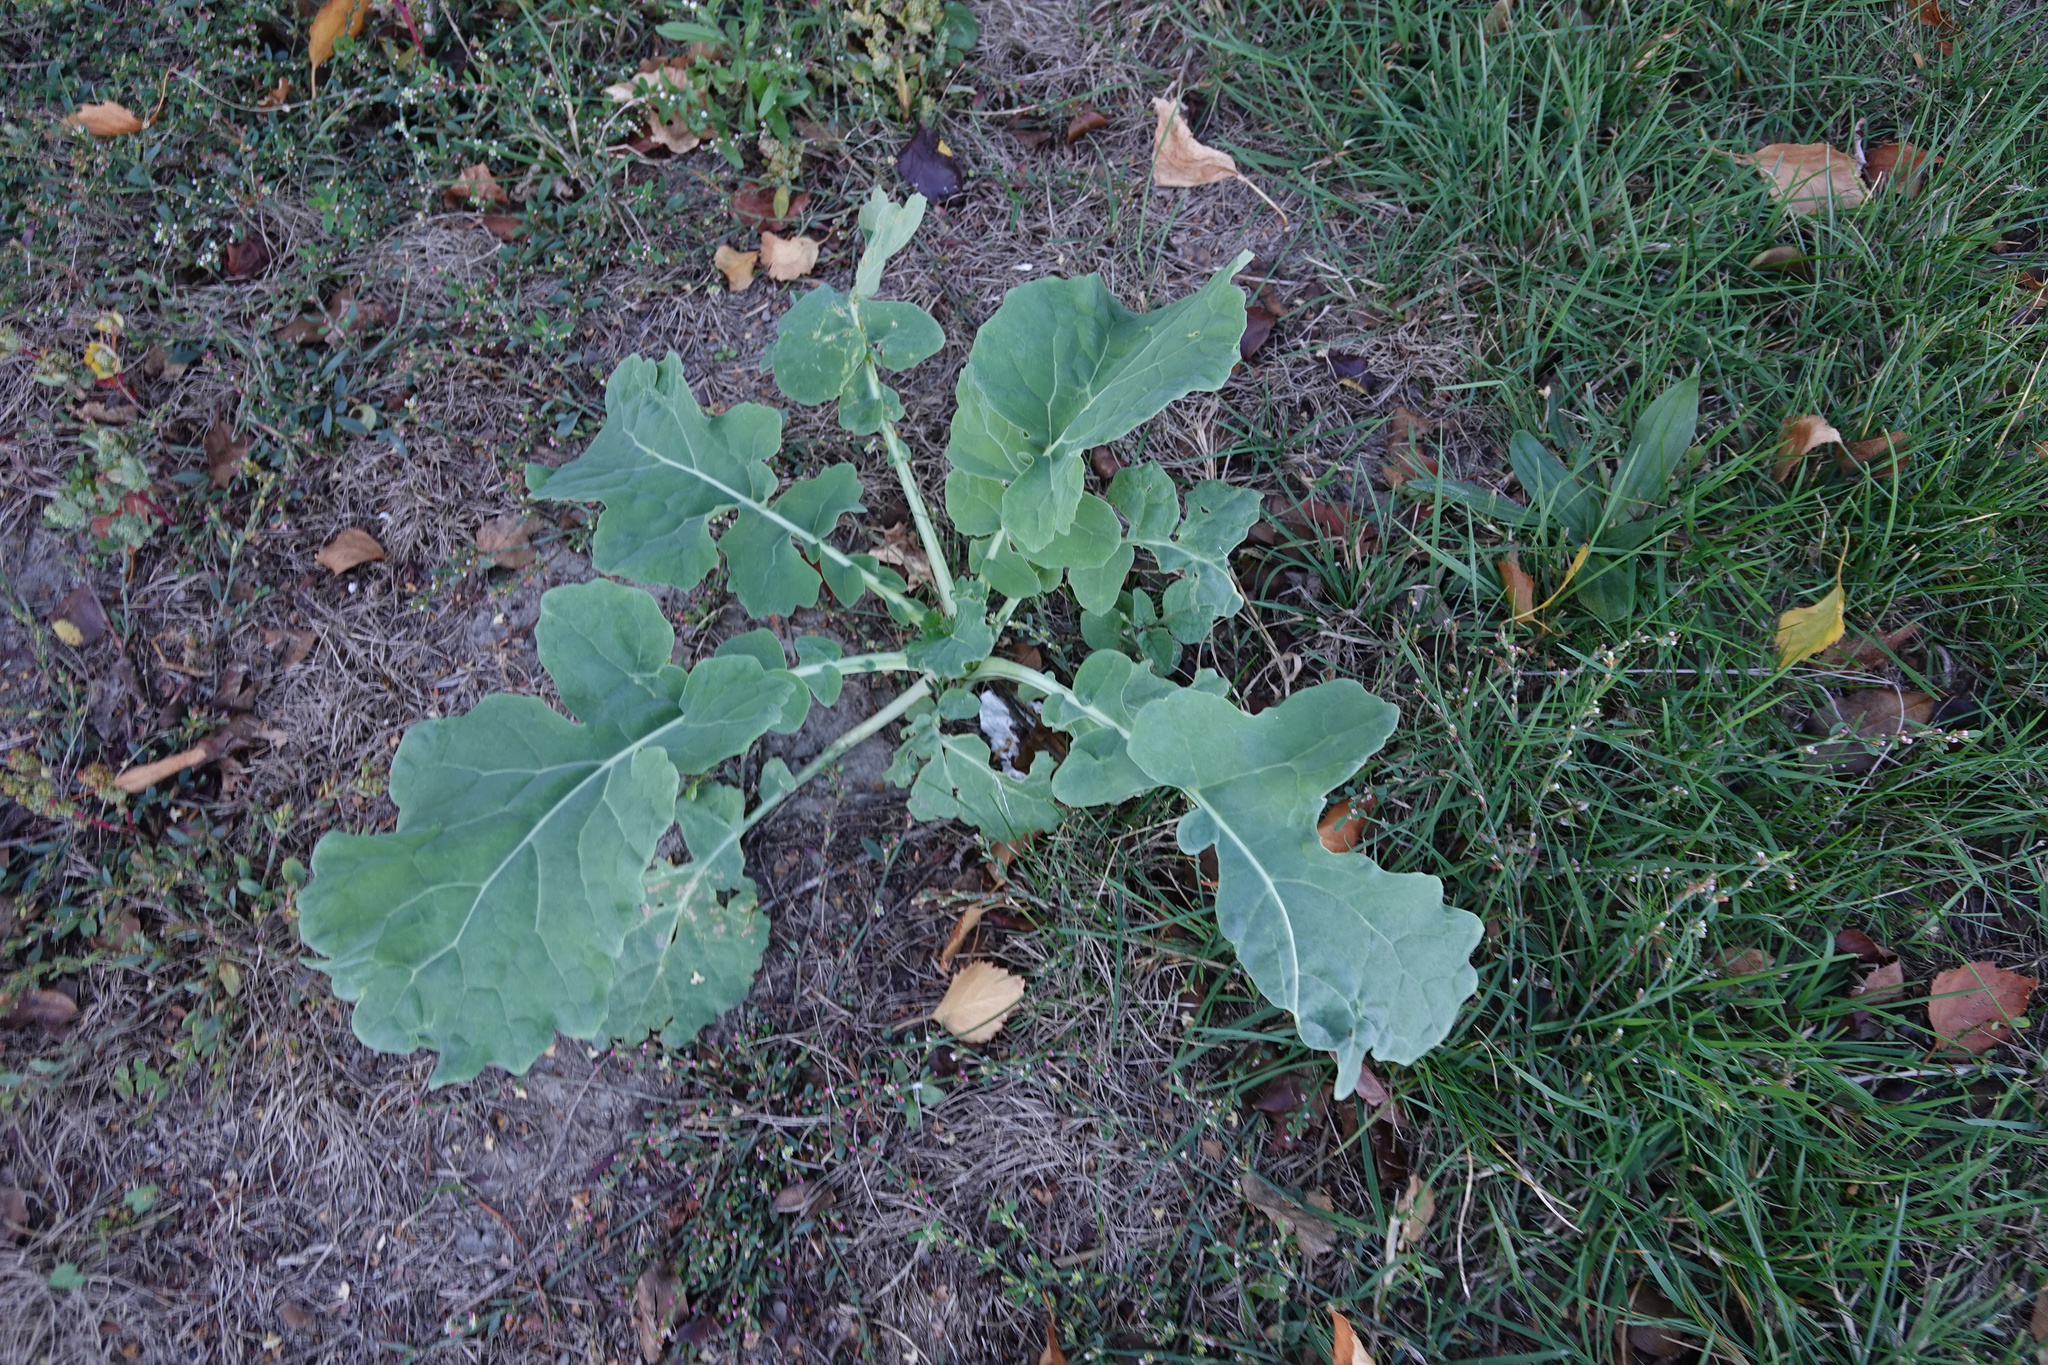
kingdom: Plantae
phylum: Tracheophyta
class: Magnoliopsida
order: Brassicales
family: Brassicaceae
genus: Brassica
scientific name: Brassica oleracea
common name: Cabbage
